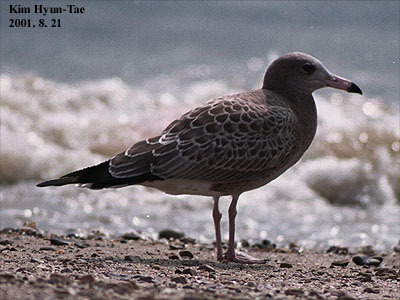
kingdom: Animalia
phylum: Chordata
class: Aves
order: Charadriiformes
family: Laridae
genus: Larus
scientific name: Larus crassirostris
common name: Black-tailed gull
